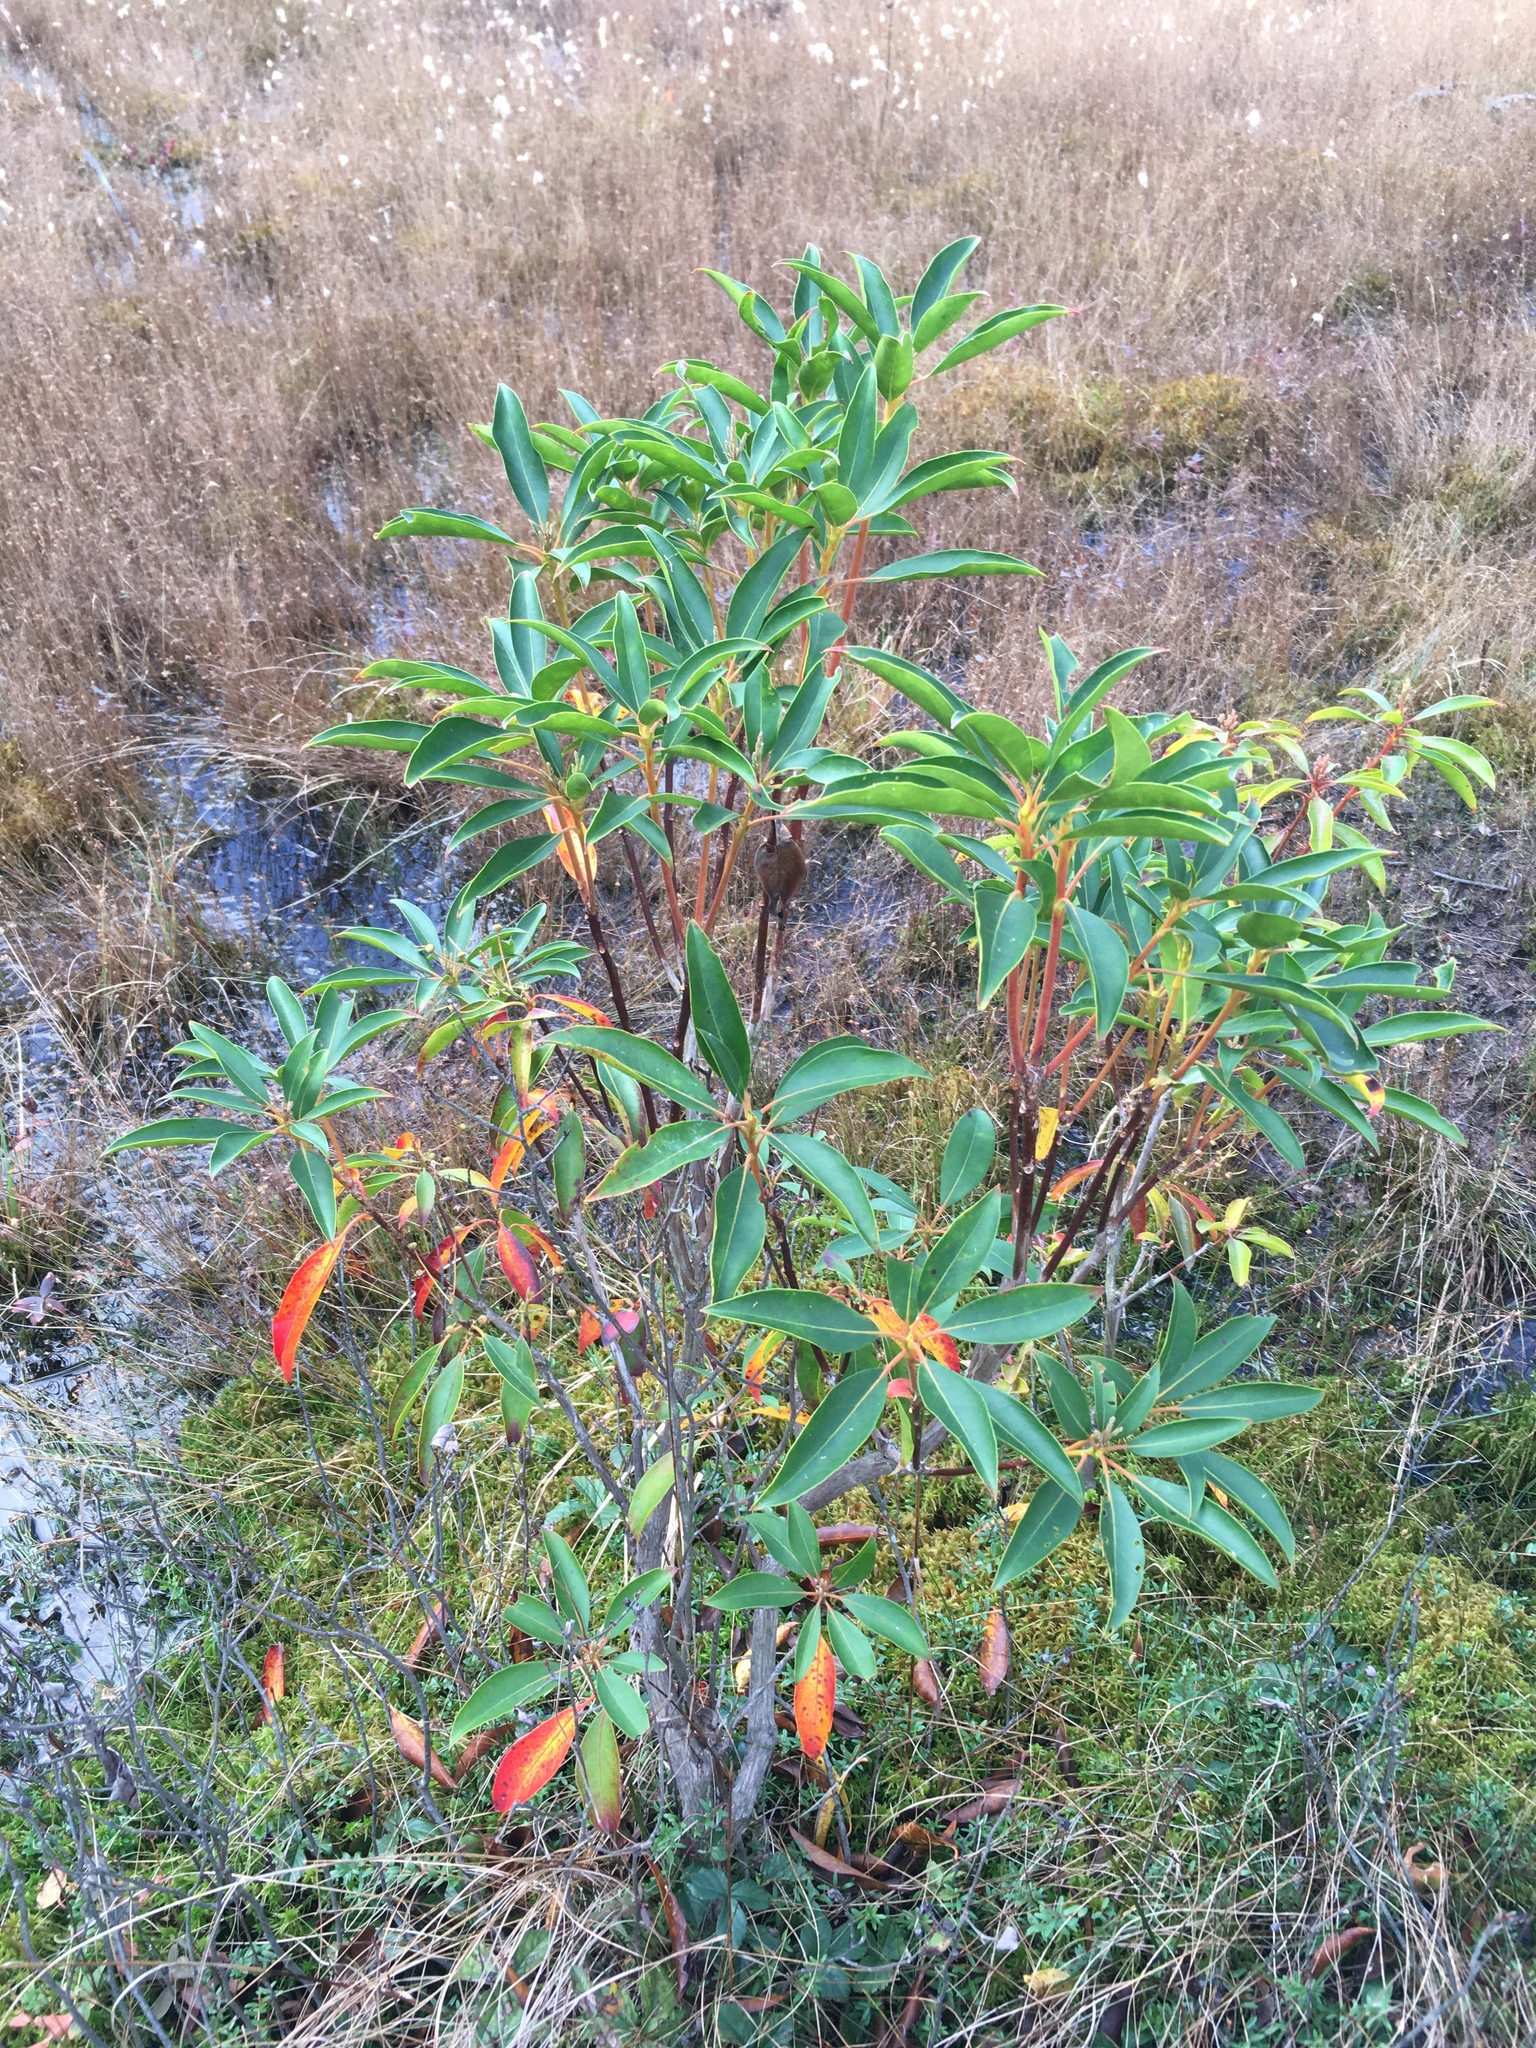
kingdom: Plantae
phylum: Tracheophyta
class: Magnoliopsida
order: Ericales
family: Ericaceae
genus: Kalmia
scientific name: Kalmia latifolia
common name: Mountain-laurel
